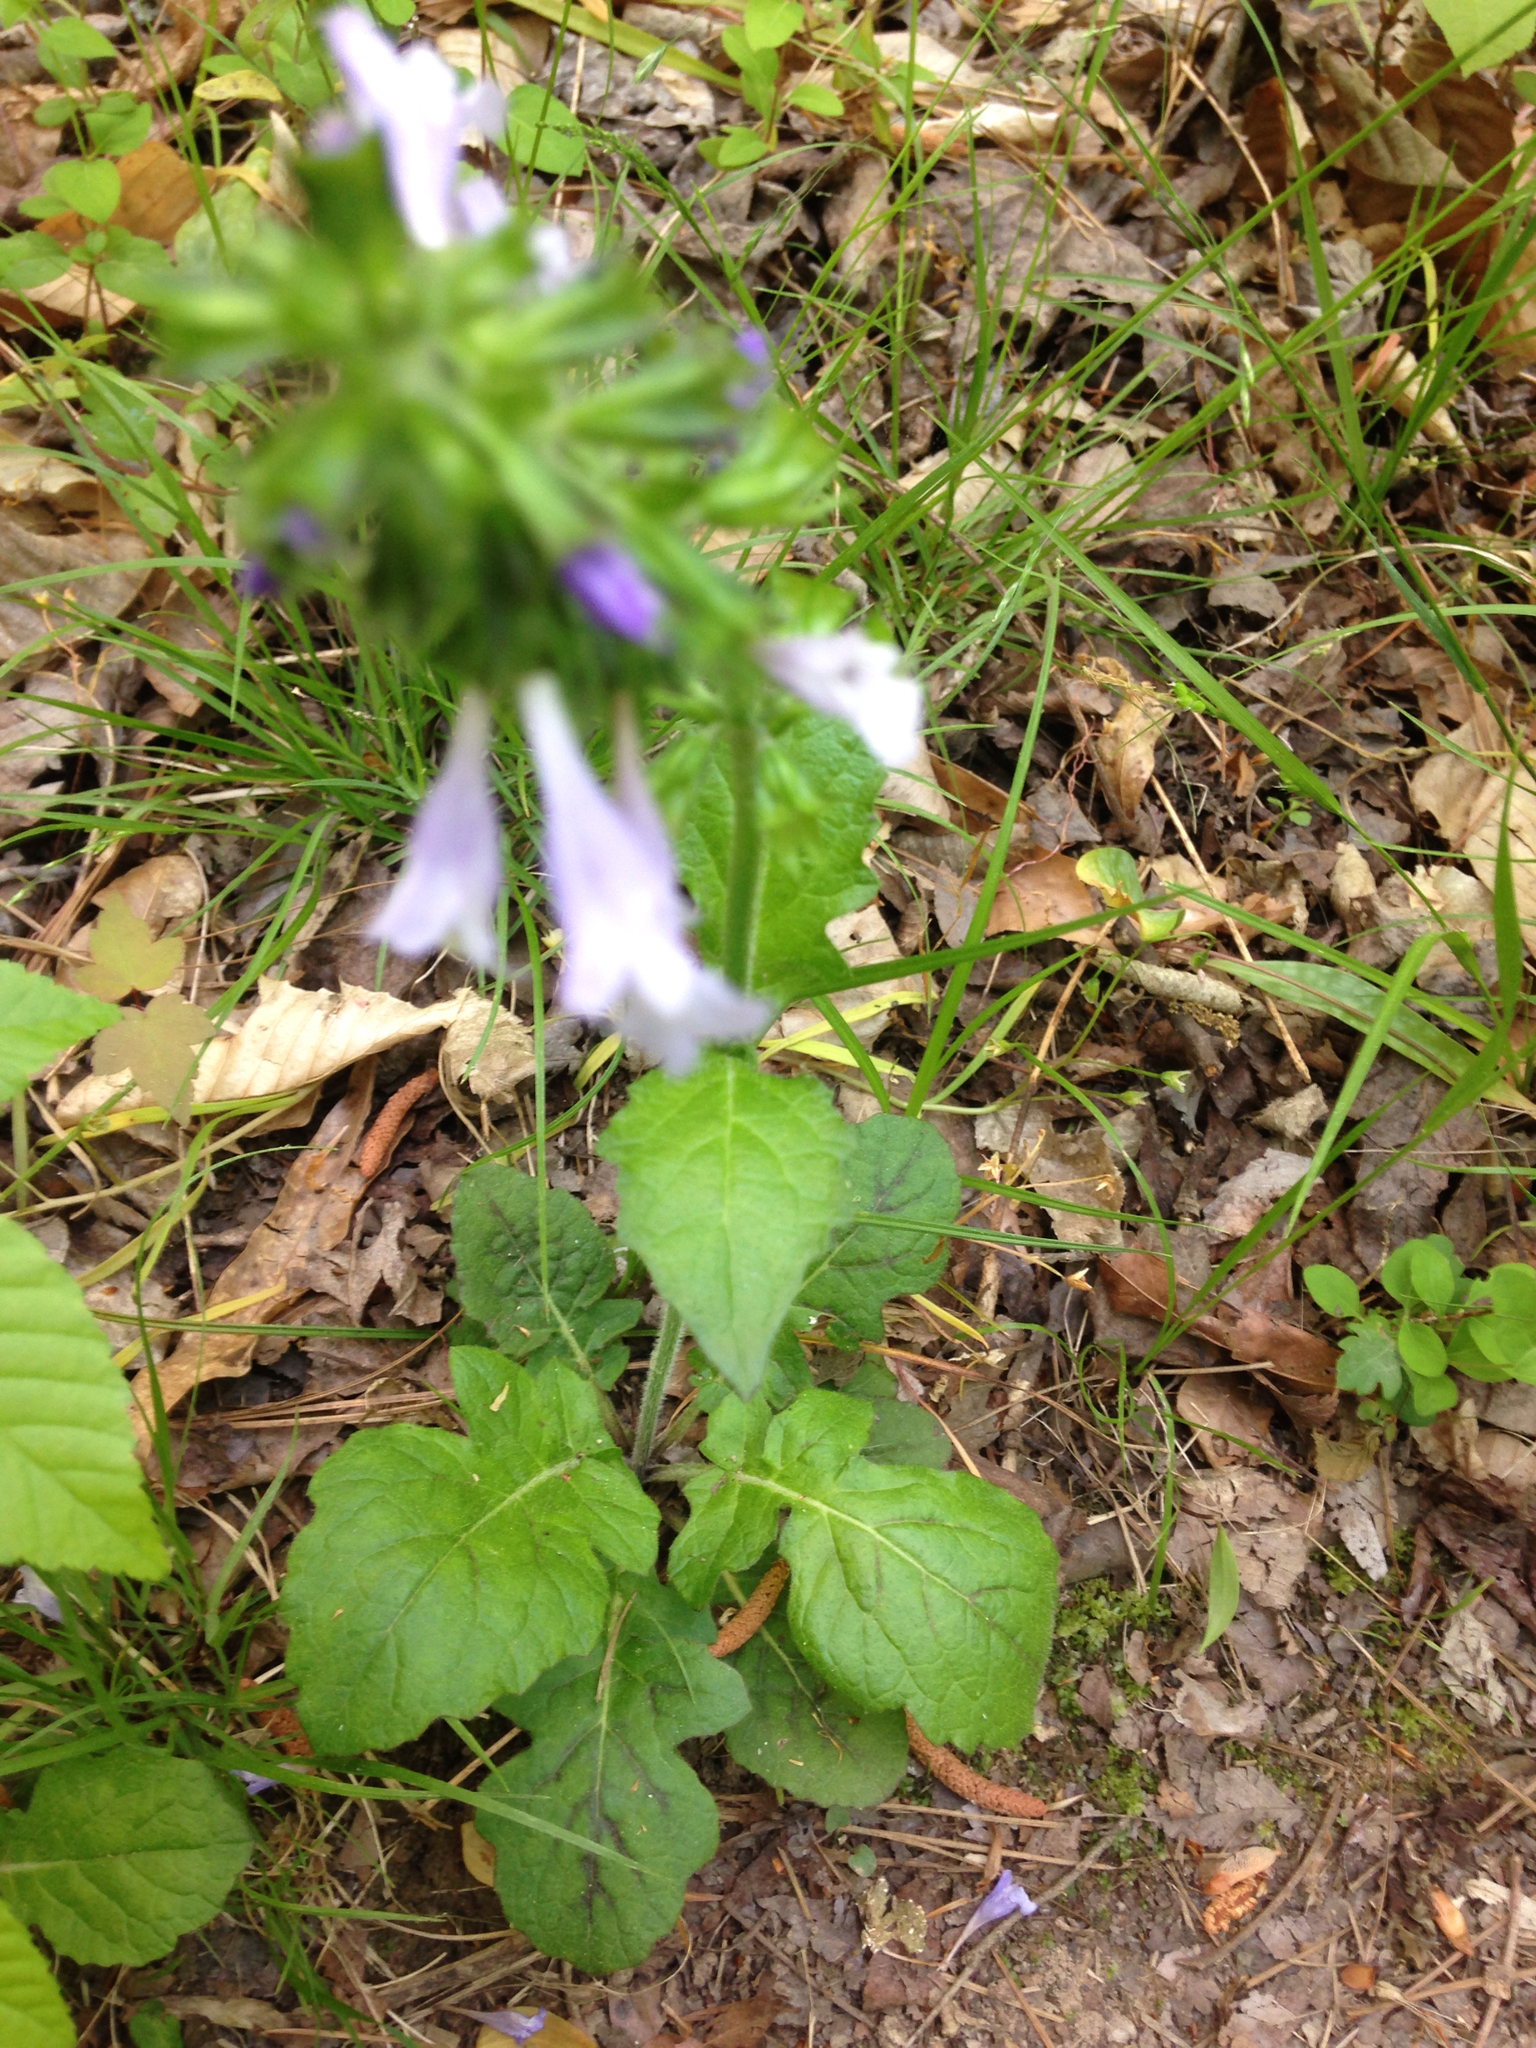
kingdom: Plantae
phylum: Tracheophyta
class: Magnoliopsida
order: Lamiales
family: Lamiaceae
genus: Salvia
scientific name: Salvia lyrata
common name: Cancerweed
